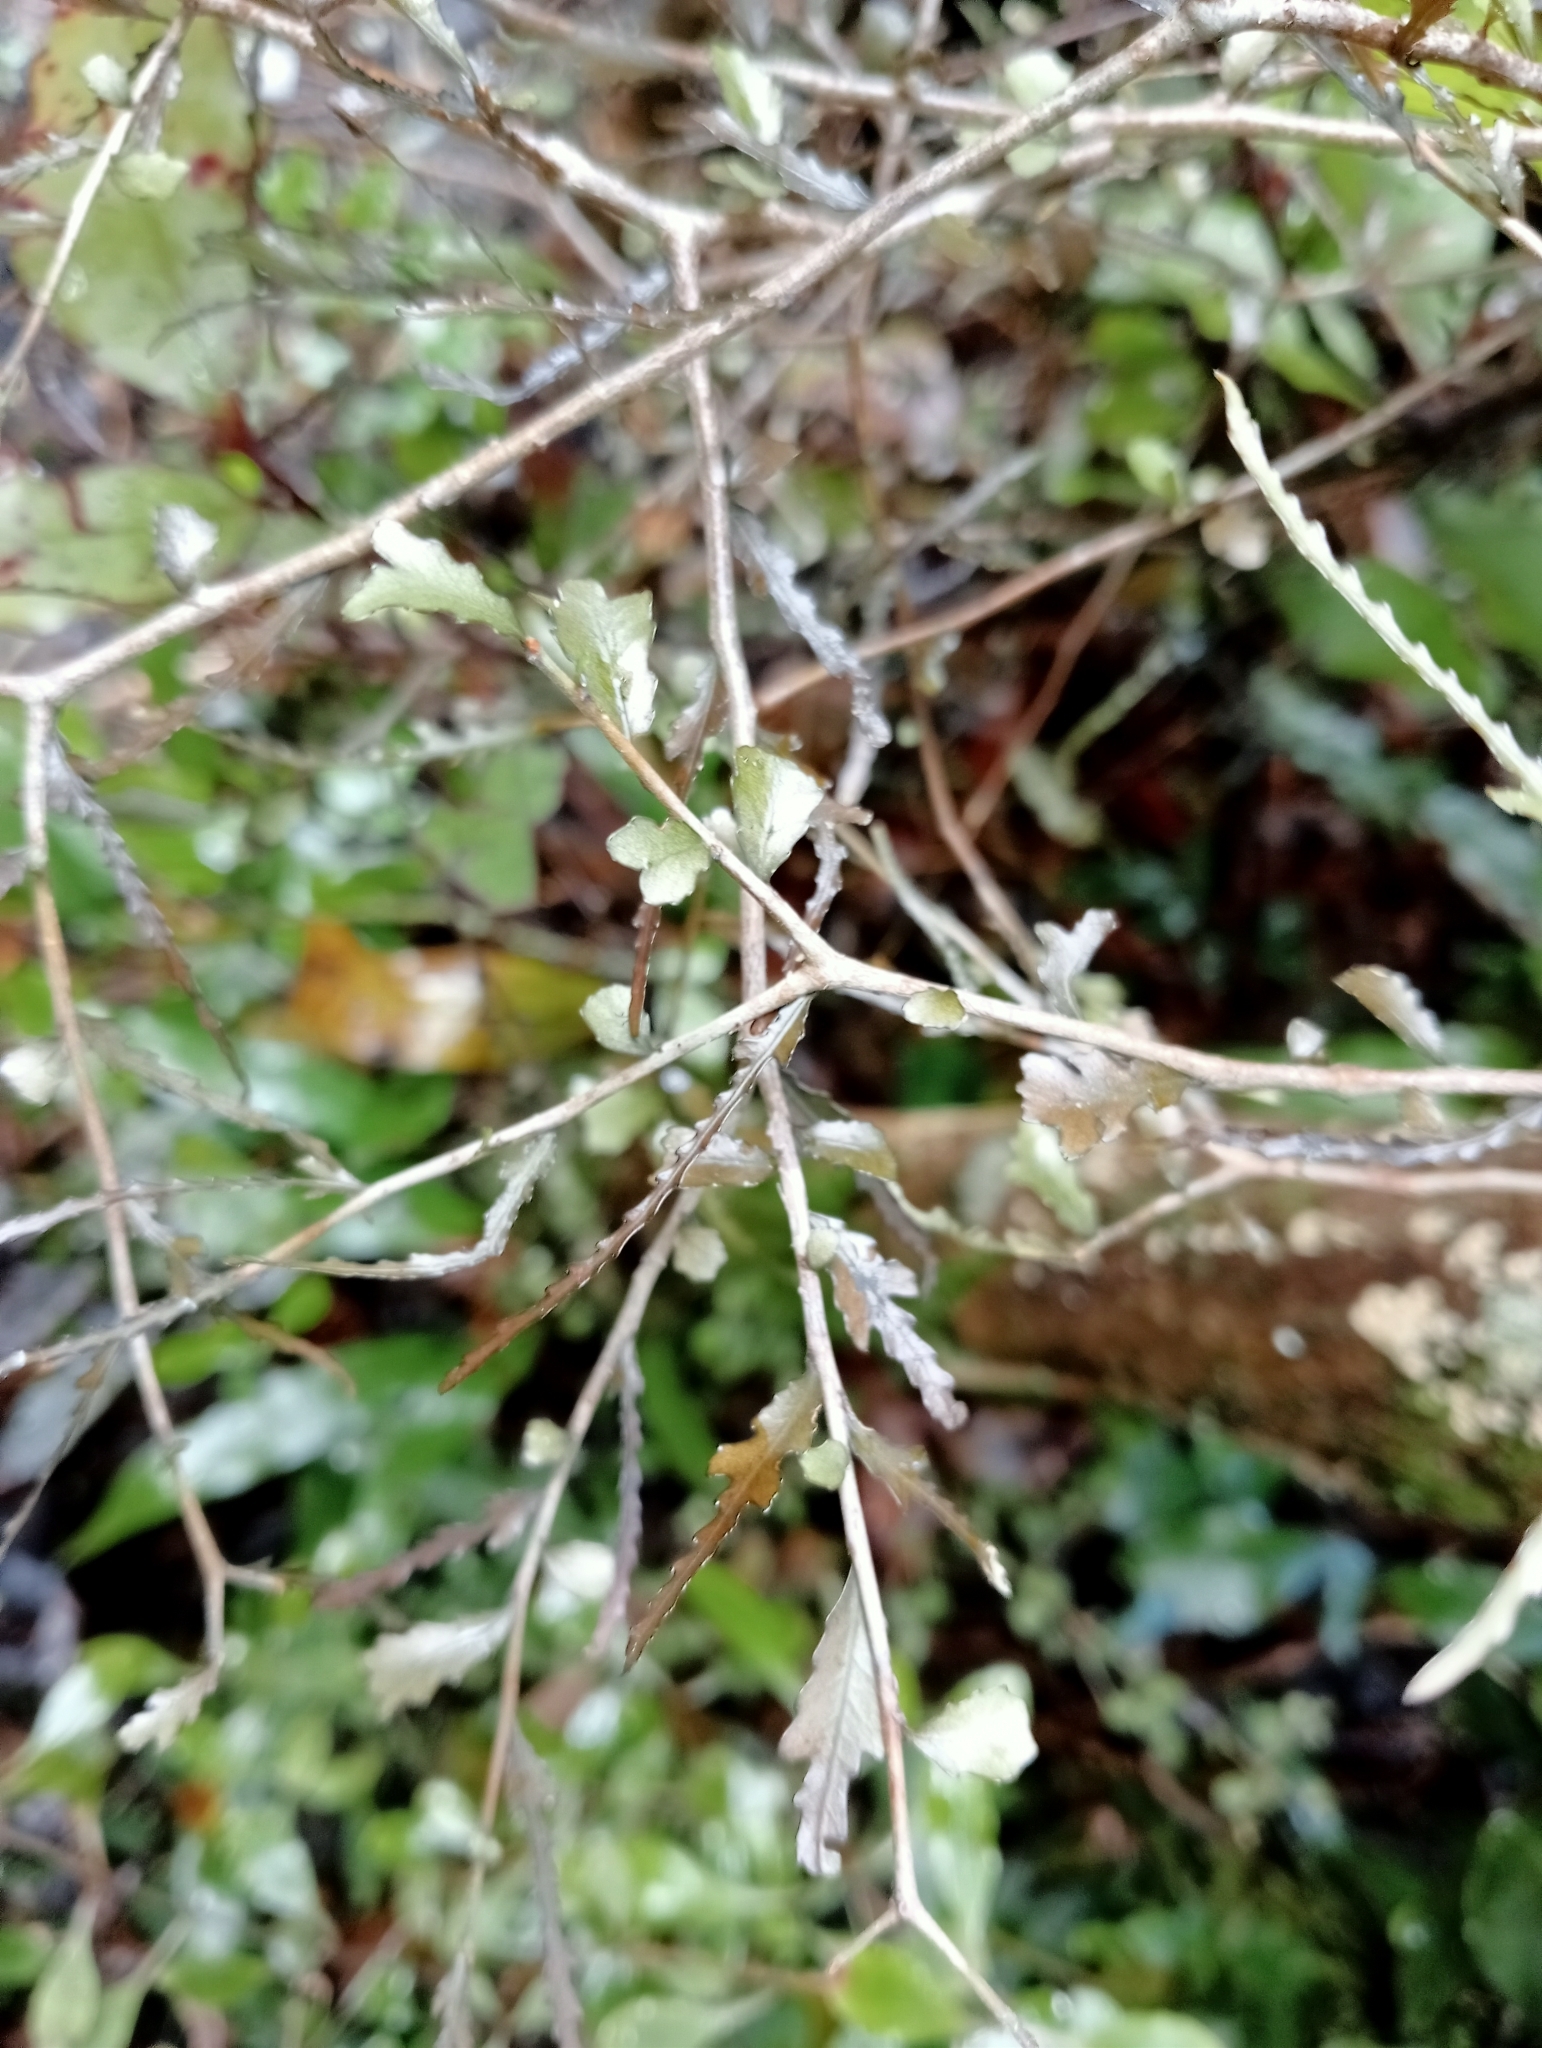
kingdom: Plantae
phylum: Tracheophyta
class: Magnoliopsida
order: Oxalidales
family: Elaeocarpaceae
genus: Elaeocarpus
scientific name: Elaeocarpus hookerianus
